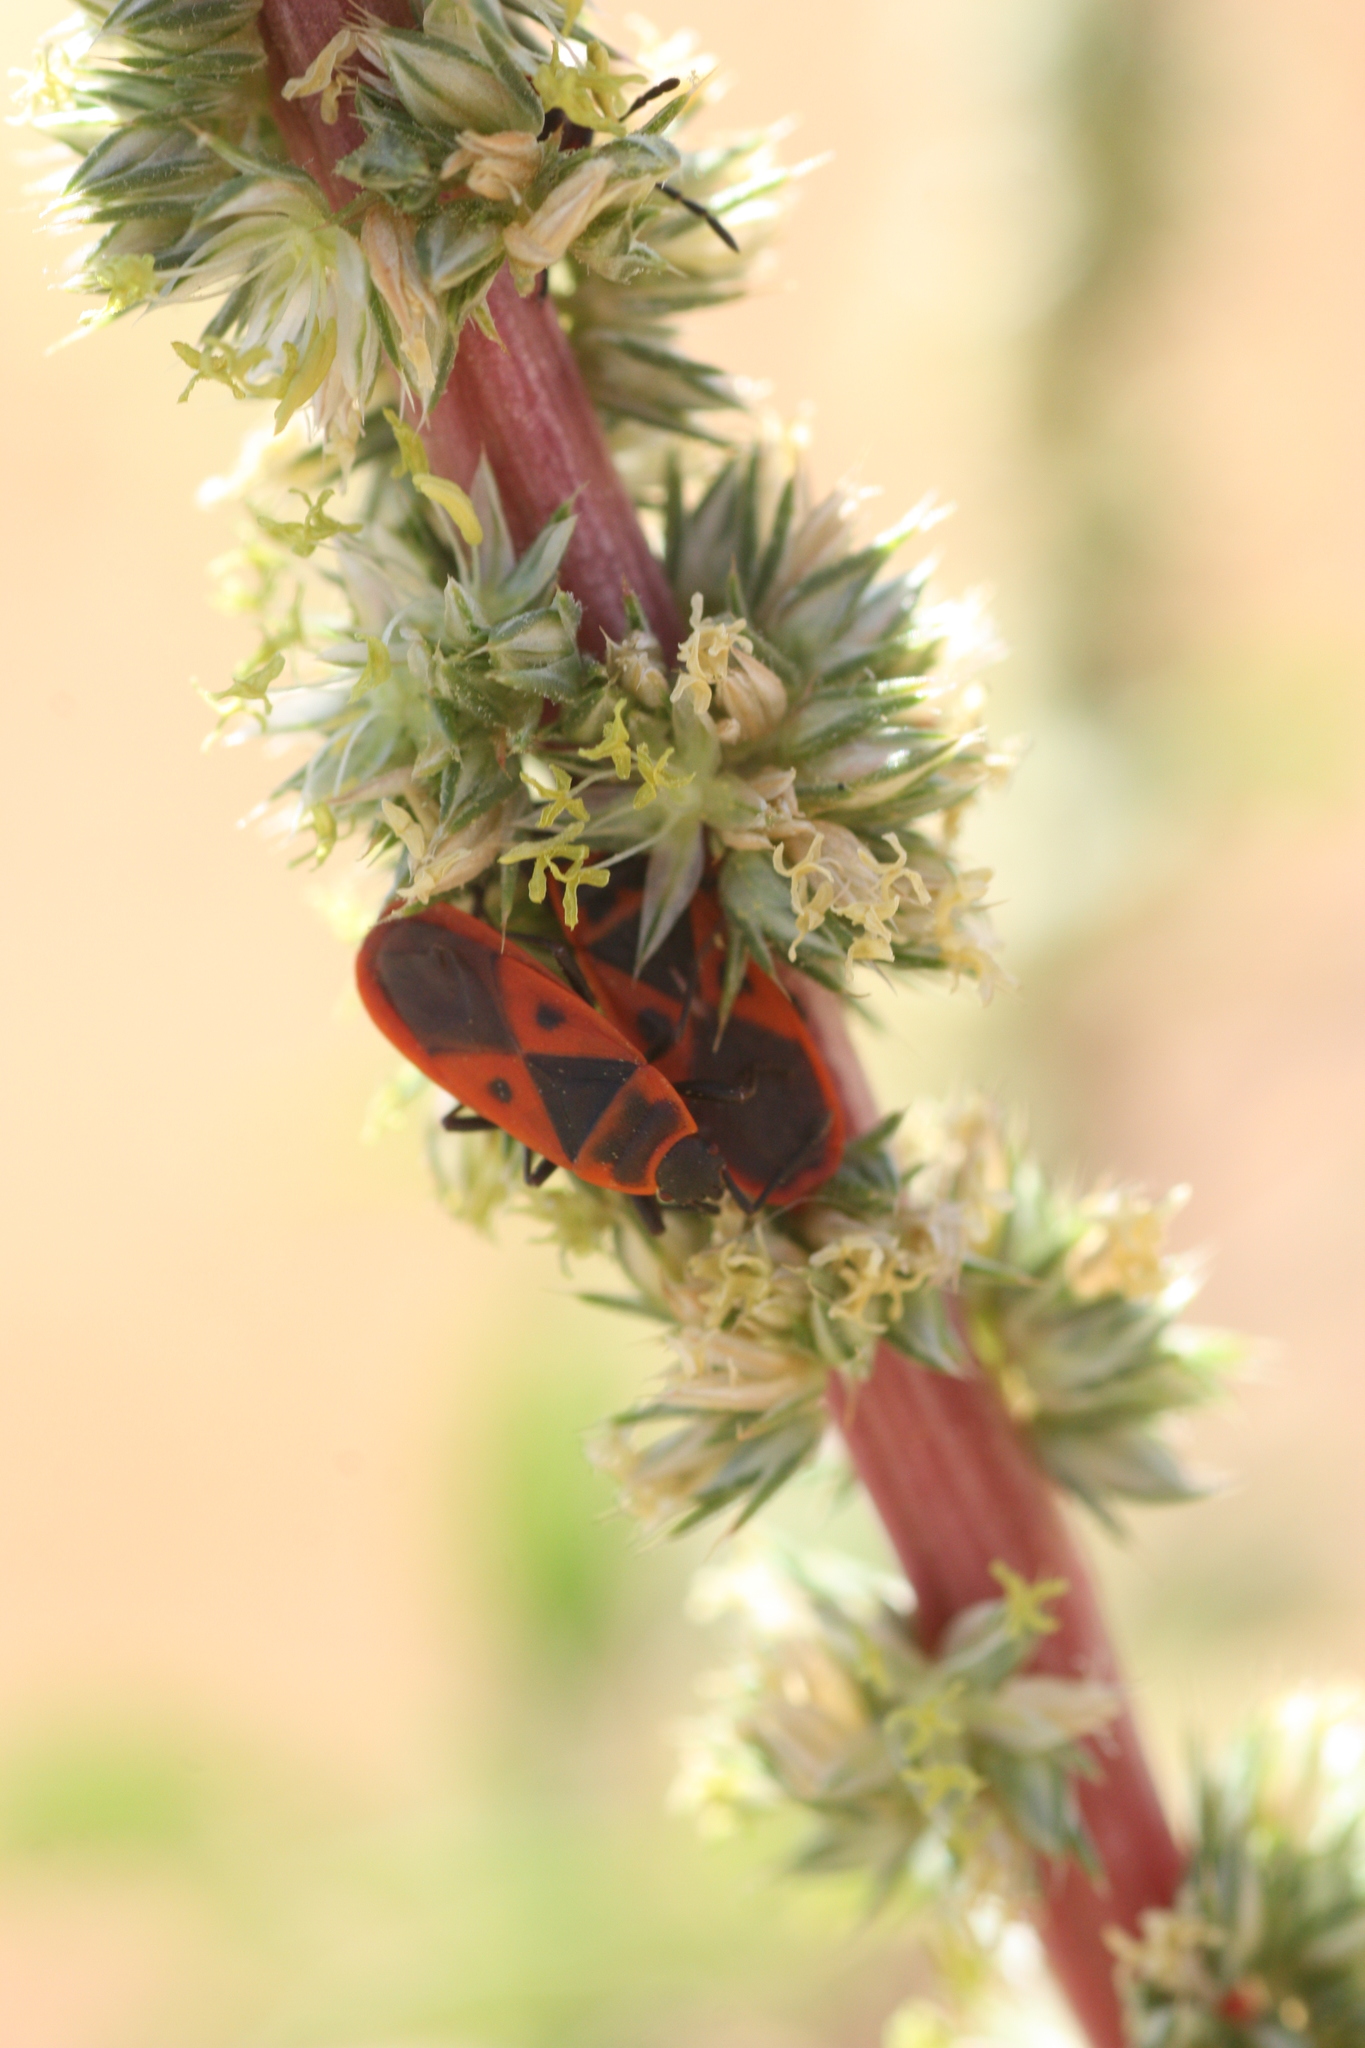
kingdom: Animalia
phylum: Arthropoda
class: Insecta
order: Hemiptera
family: Pyrrhocoridae
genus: Scantius
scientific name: Scantius aegyptius
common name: Red bug
